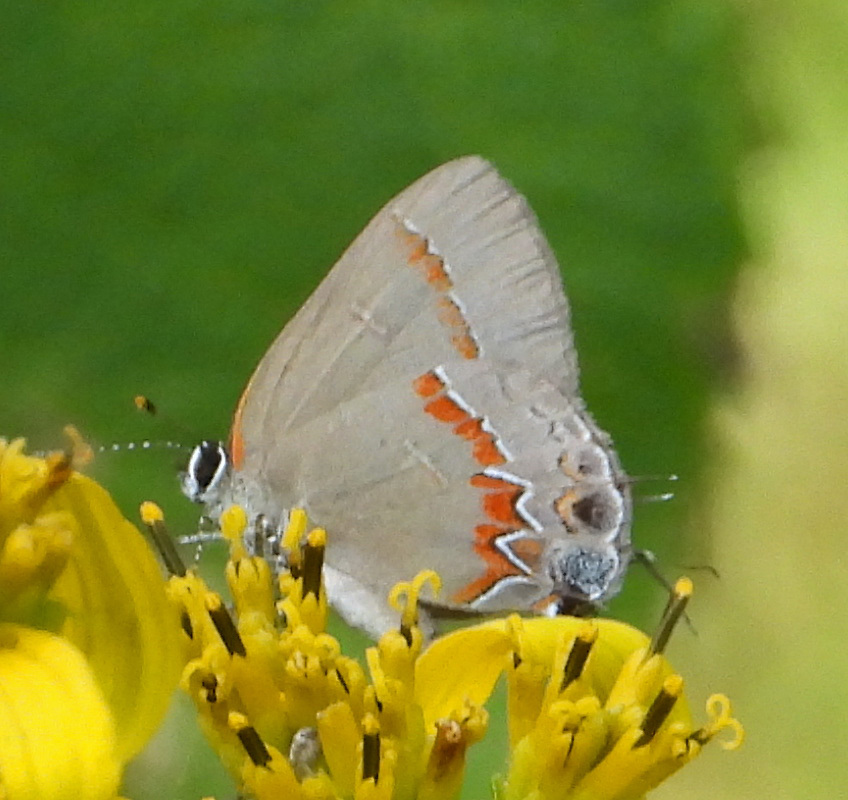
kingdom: Animalia
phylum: Arthropoda
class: Insecta
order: Lepidoptera
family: Lycaenidae
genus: Calycopis
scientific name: Calycopis cecrops
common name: Red-banded hairstreak
